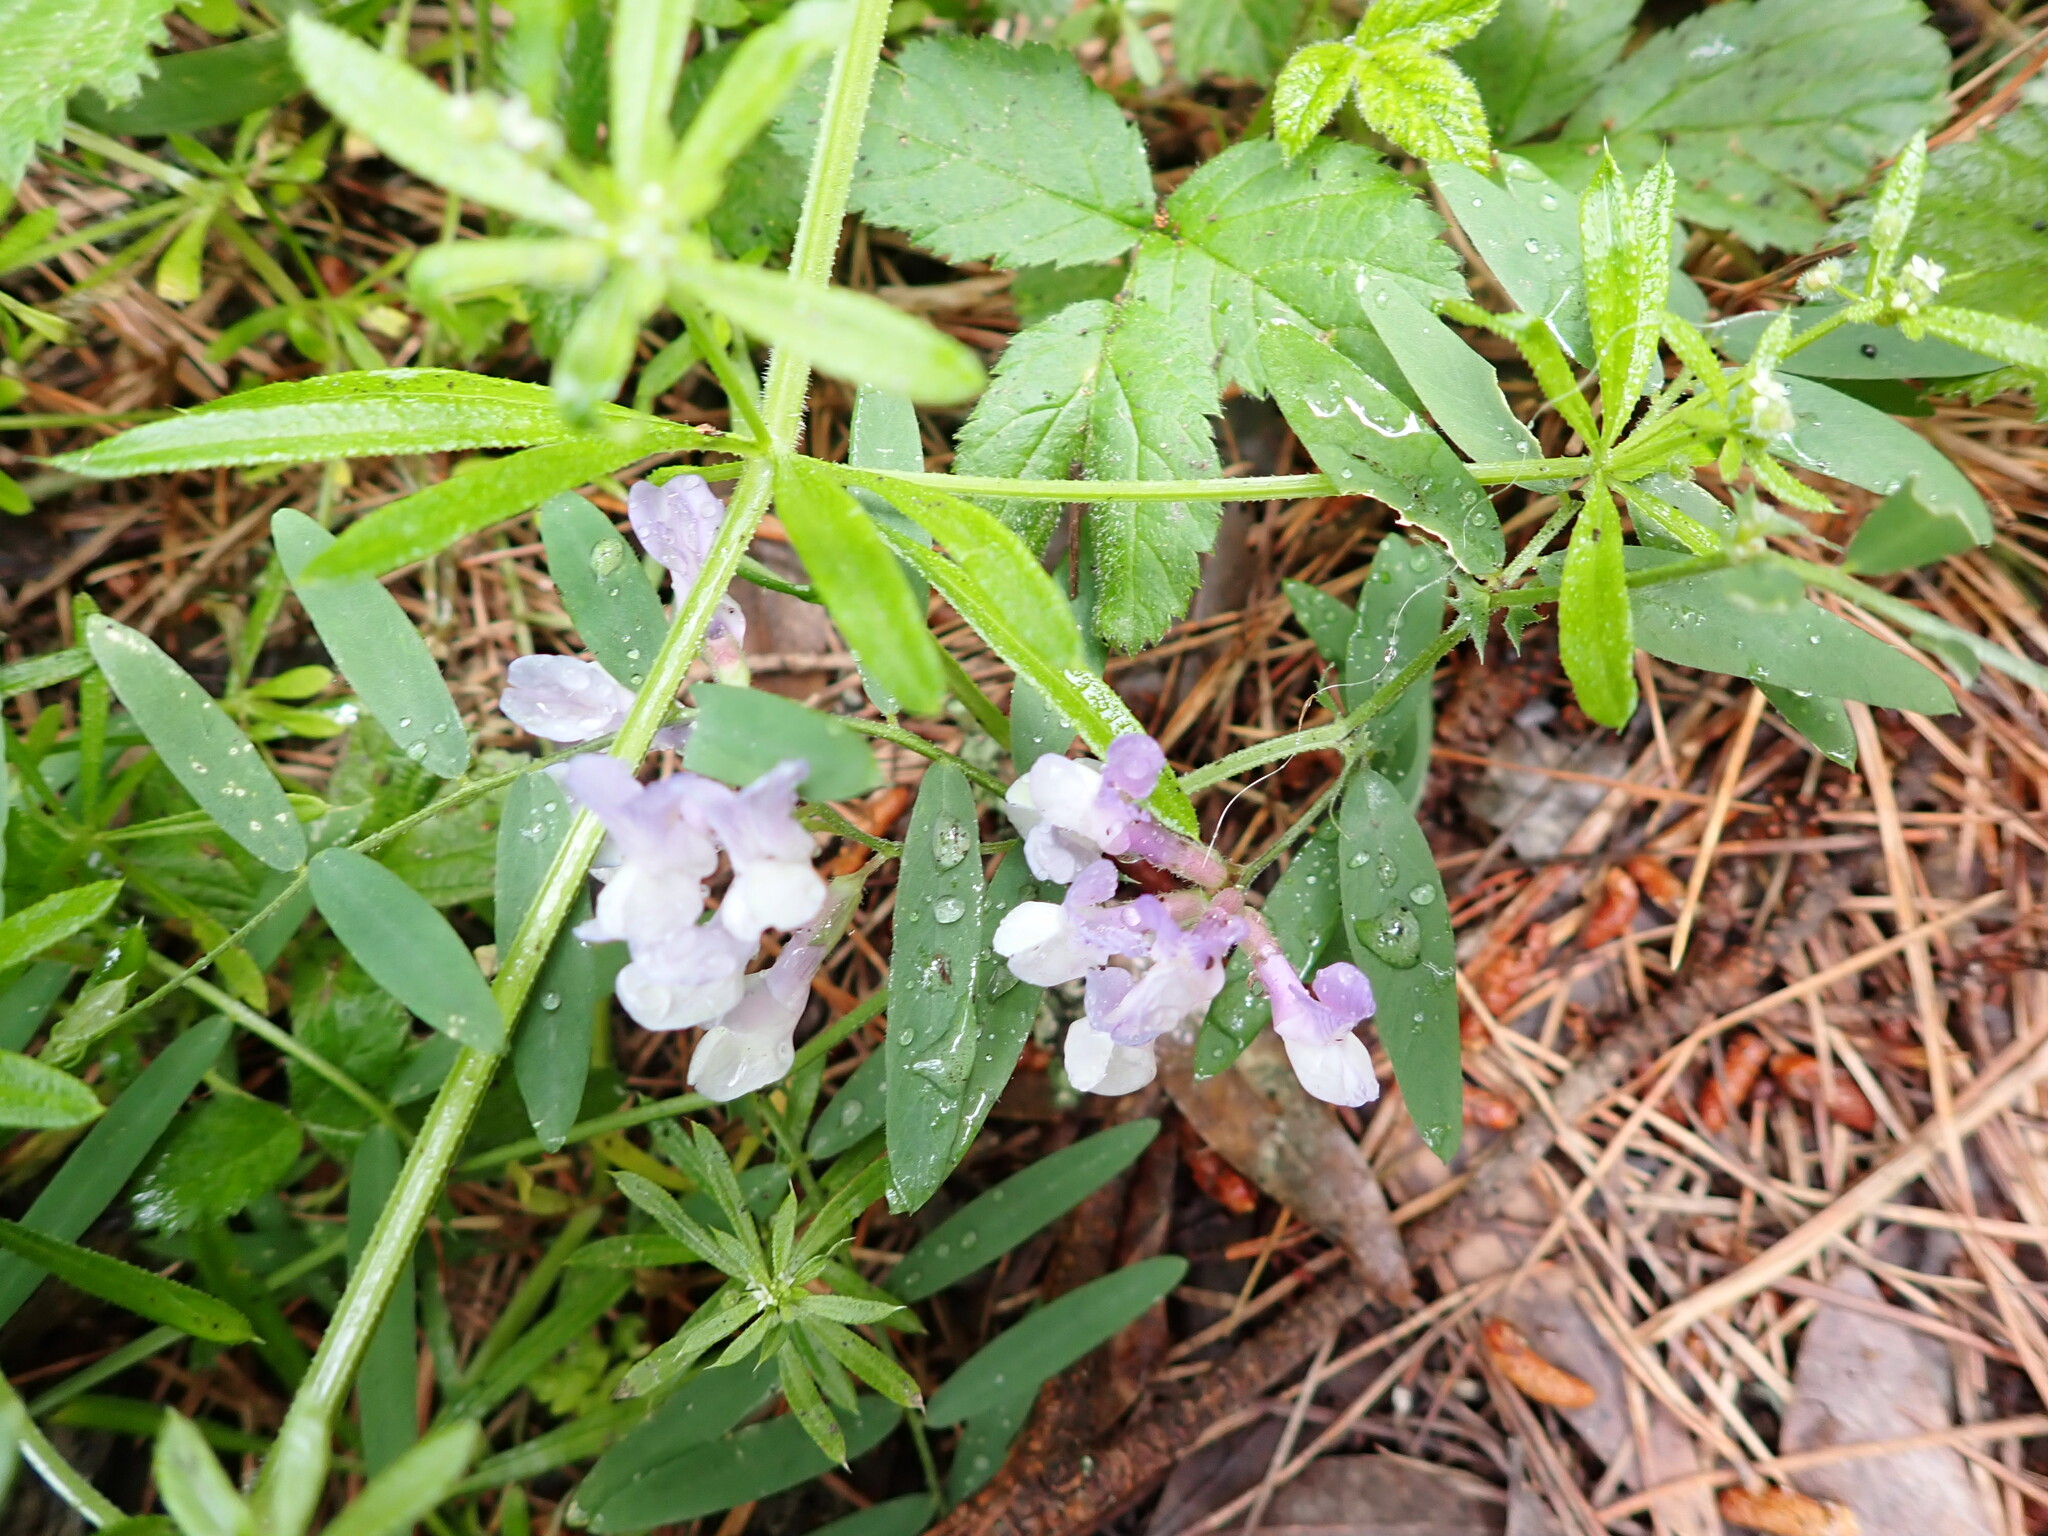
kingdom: Plantae
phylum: Tracheophyta
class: Magnoliopsida
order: Fabales
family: Fabaceae
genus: Vicia
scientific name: Vicia americana
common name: American vetch
